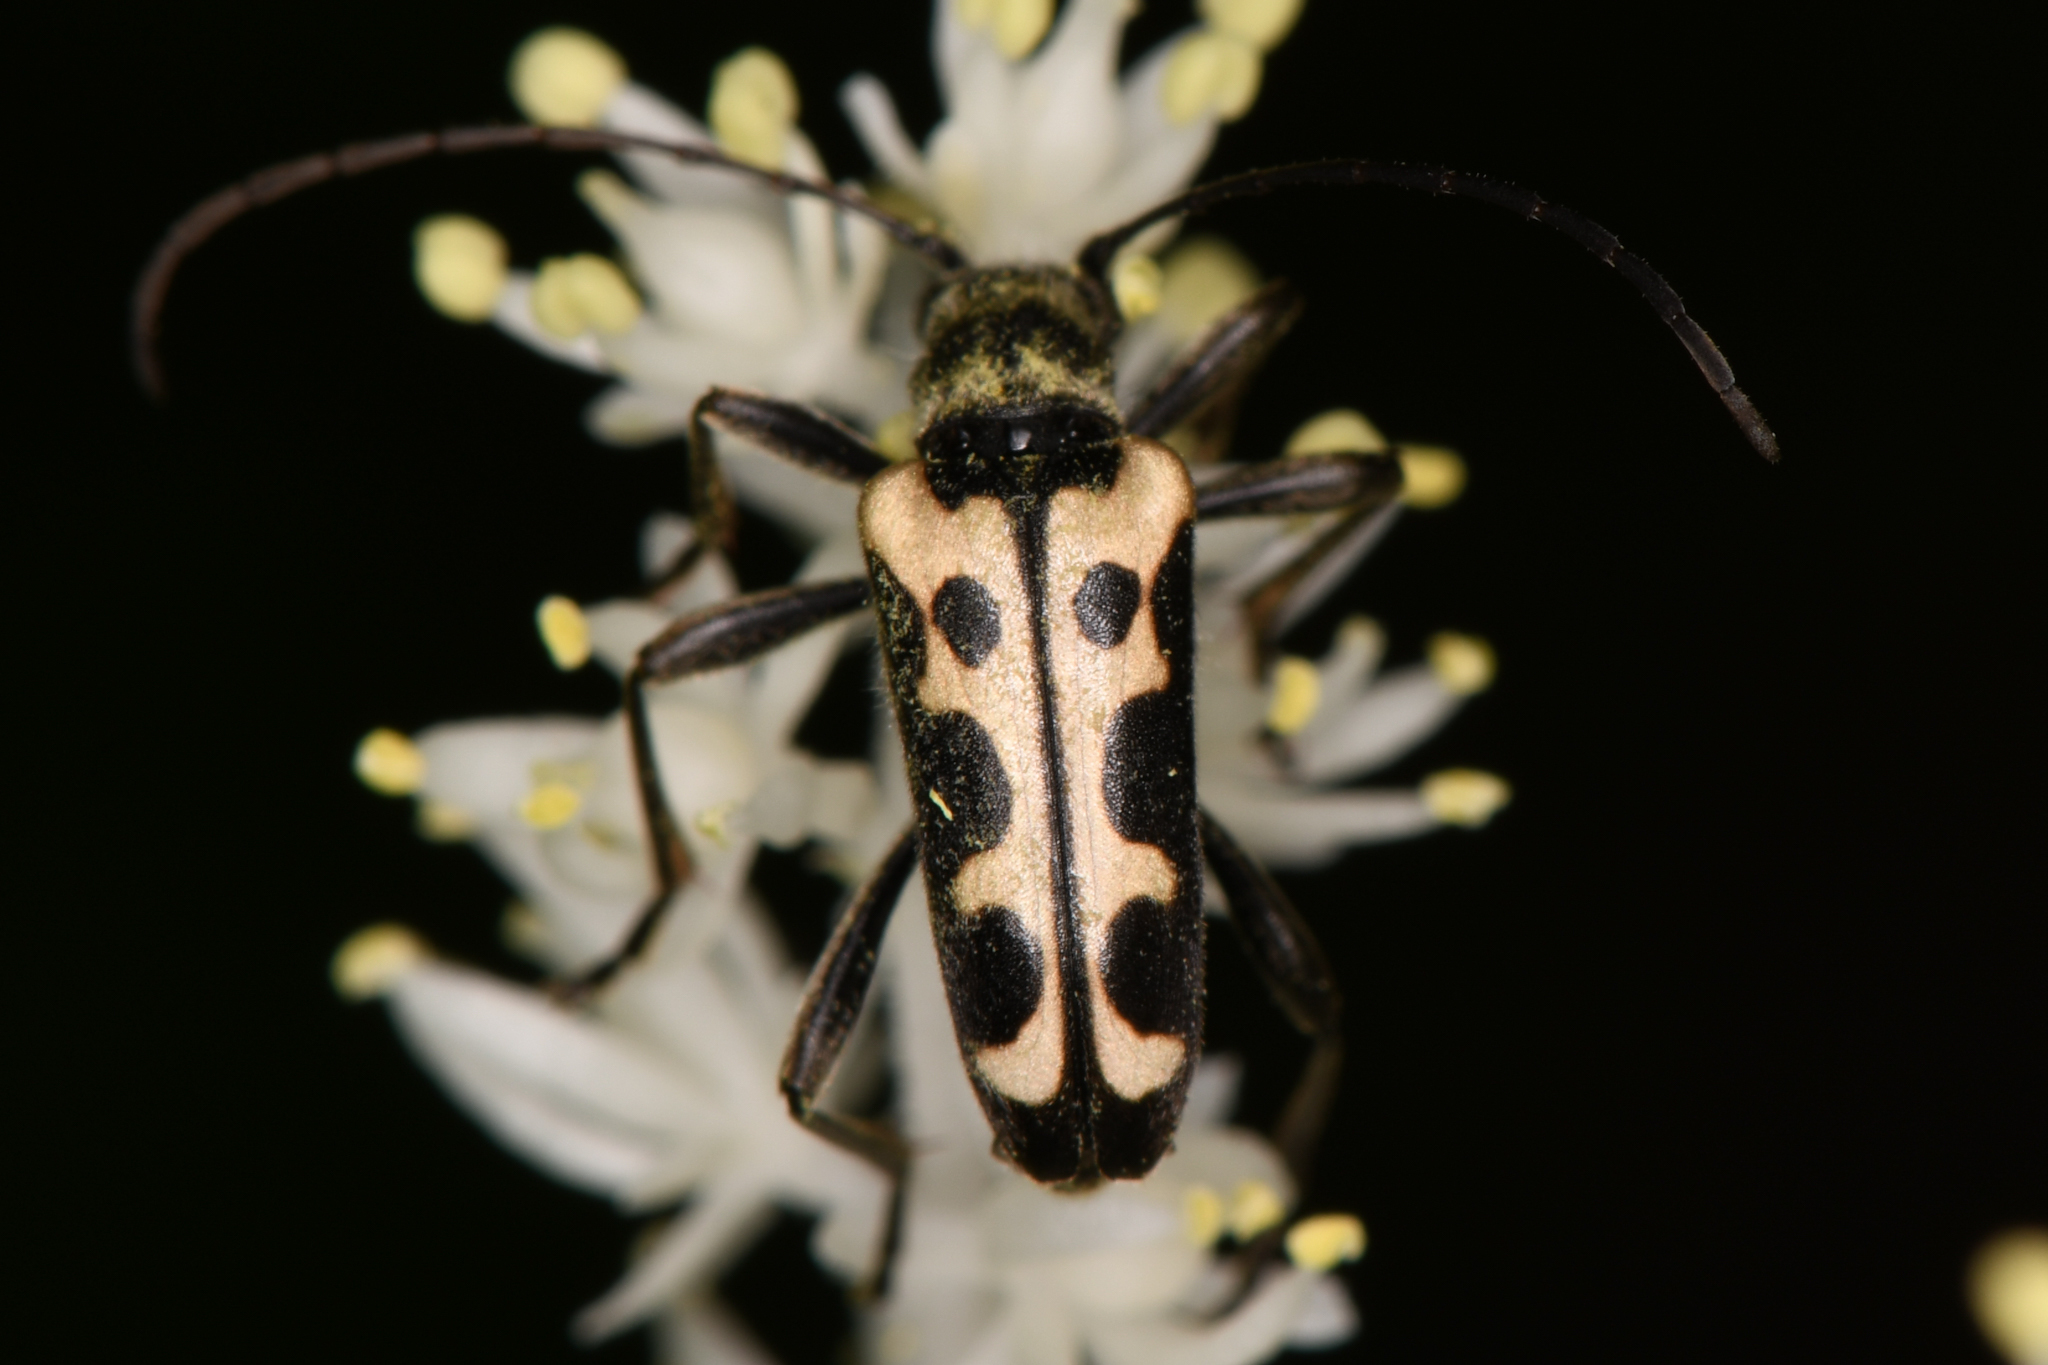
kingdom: Animalia
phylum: Arthropoda
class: Insecta
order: Coleoptera
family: Cerambycidae
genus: Evodinus
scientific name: Evodinus monticola
